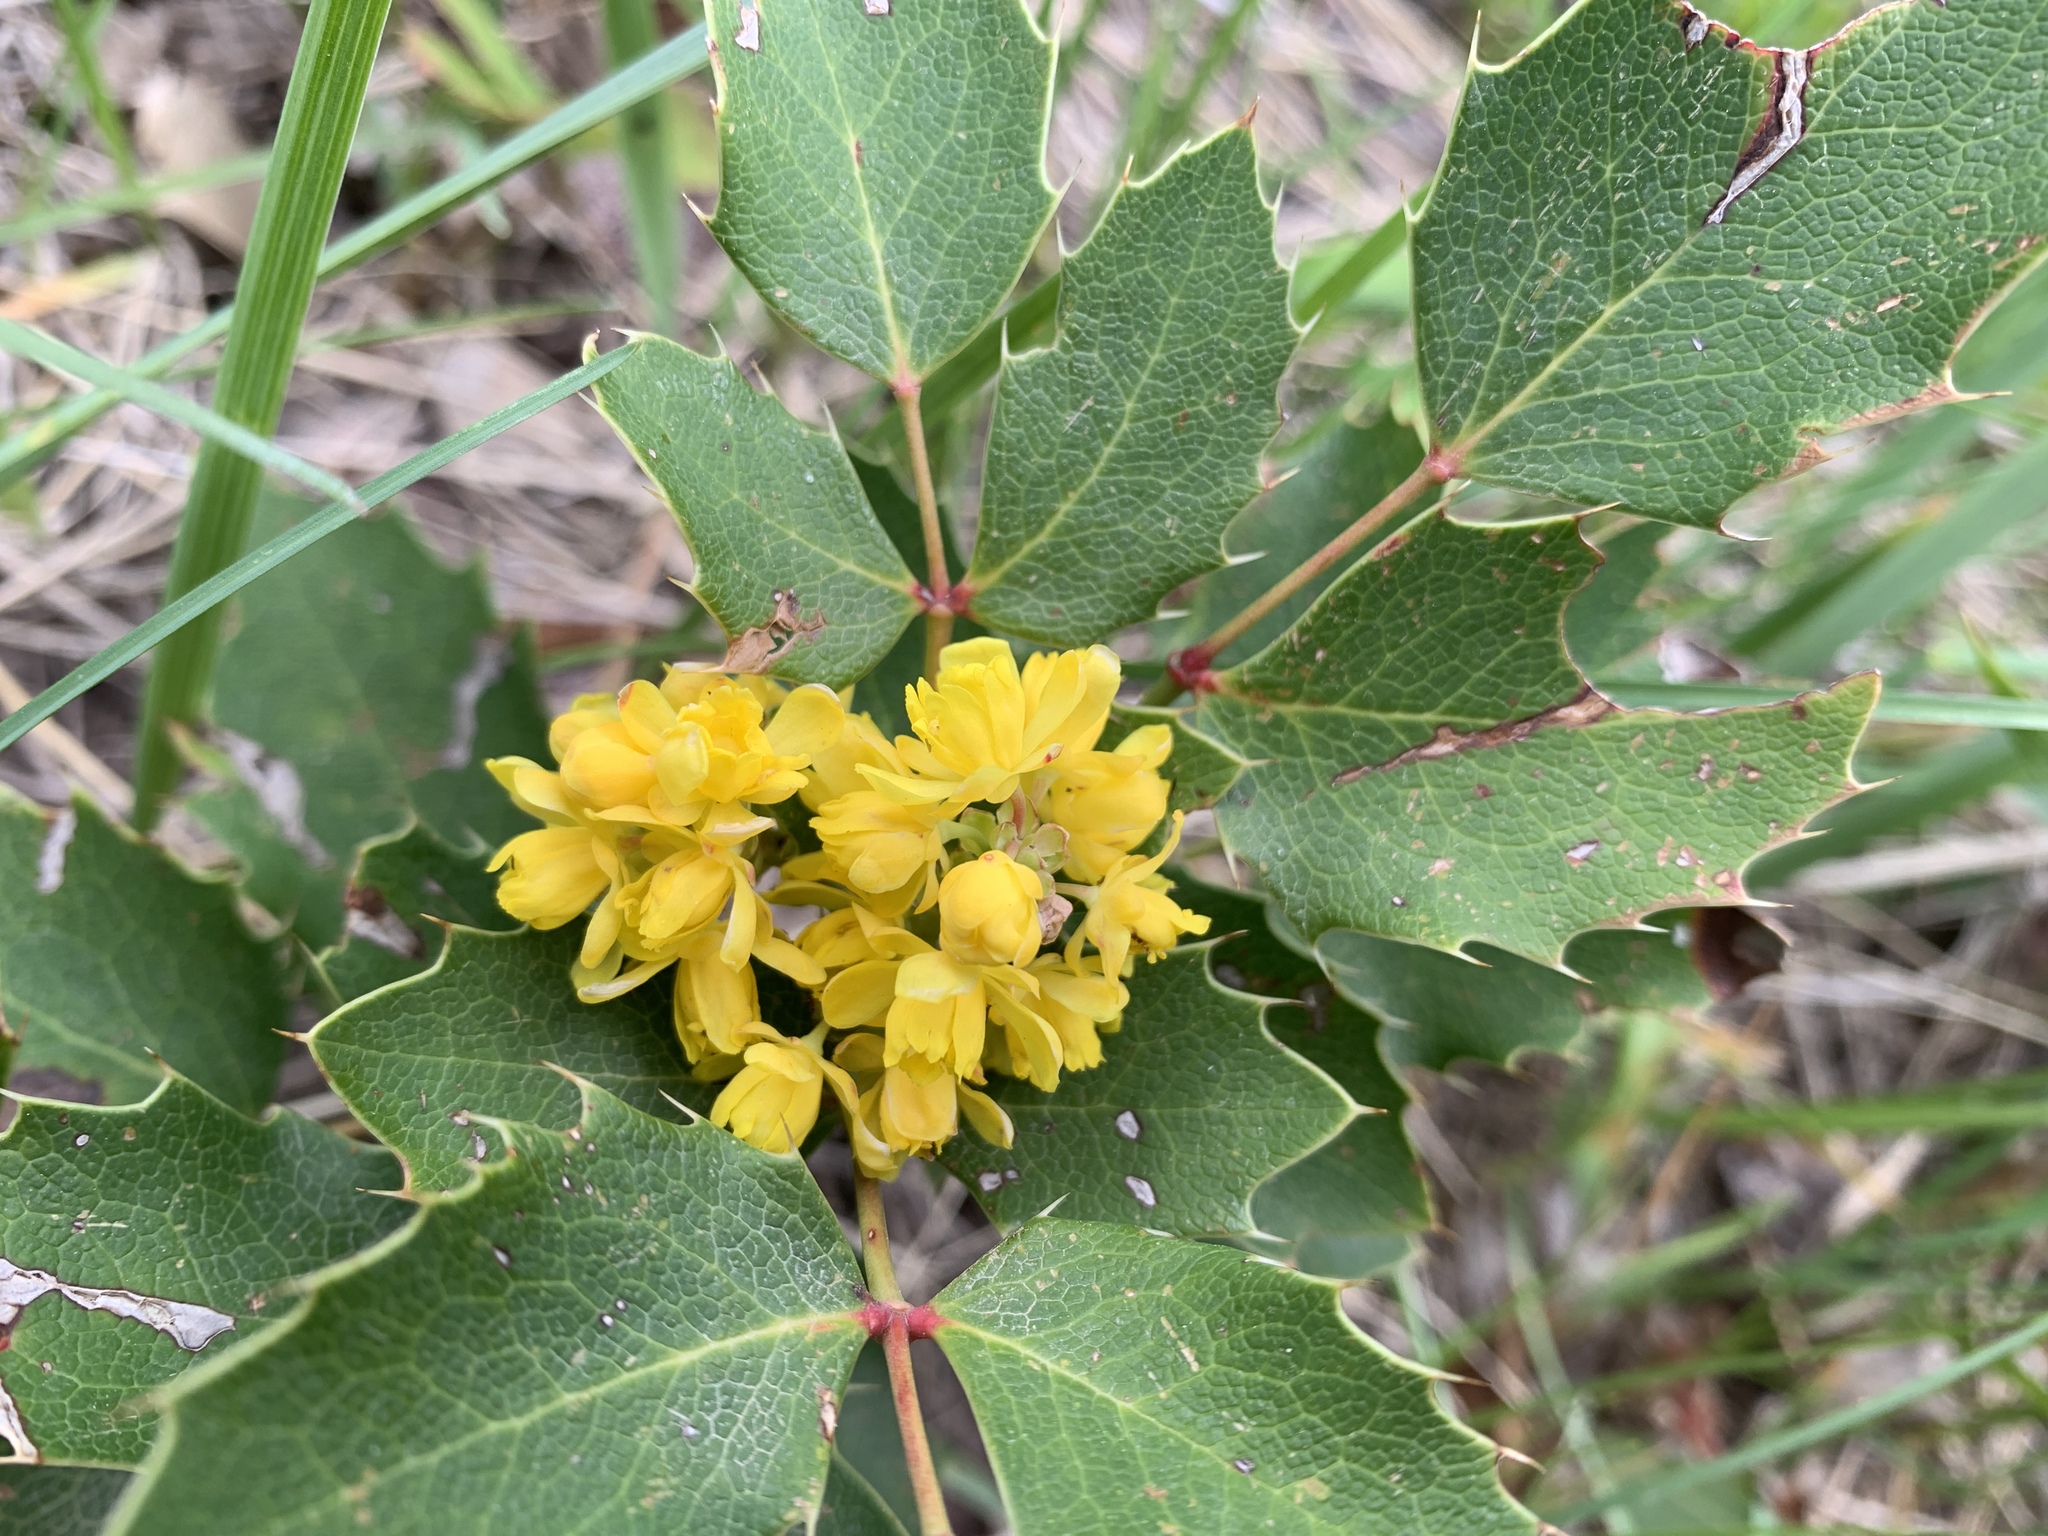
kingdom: Plantae
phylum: Tracheophyta
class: Magnoliopsida
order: Ranunculales
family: Berberidaceae
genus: Mahonia
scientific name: Mahonia repens
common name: Creeping oregon-grape
